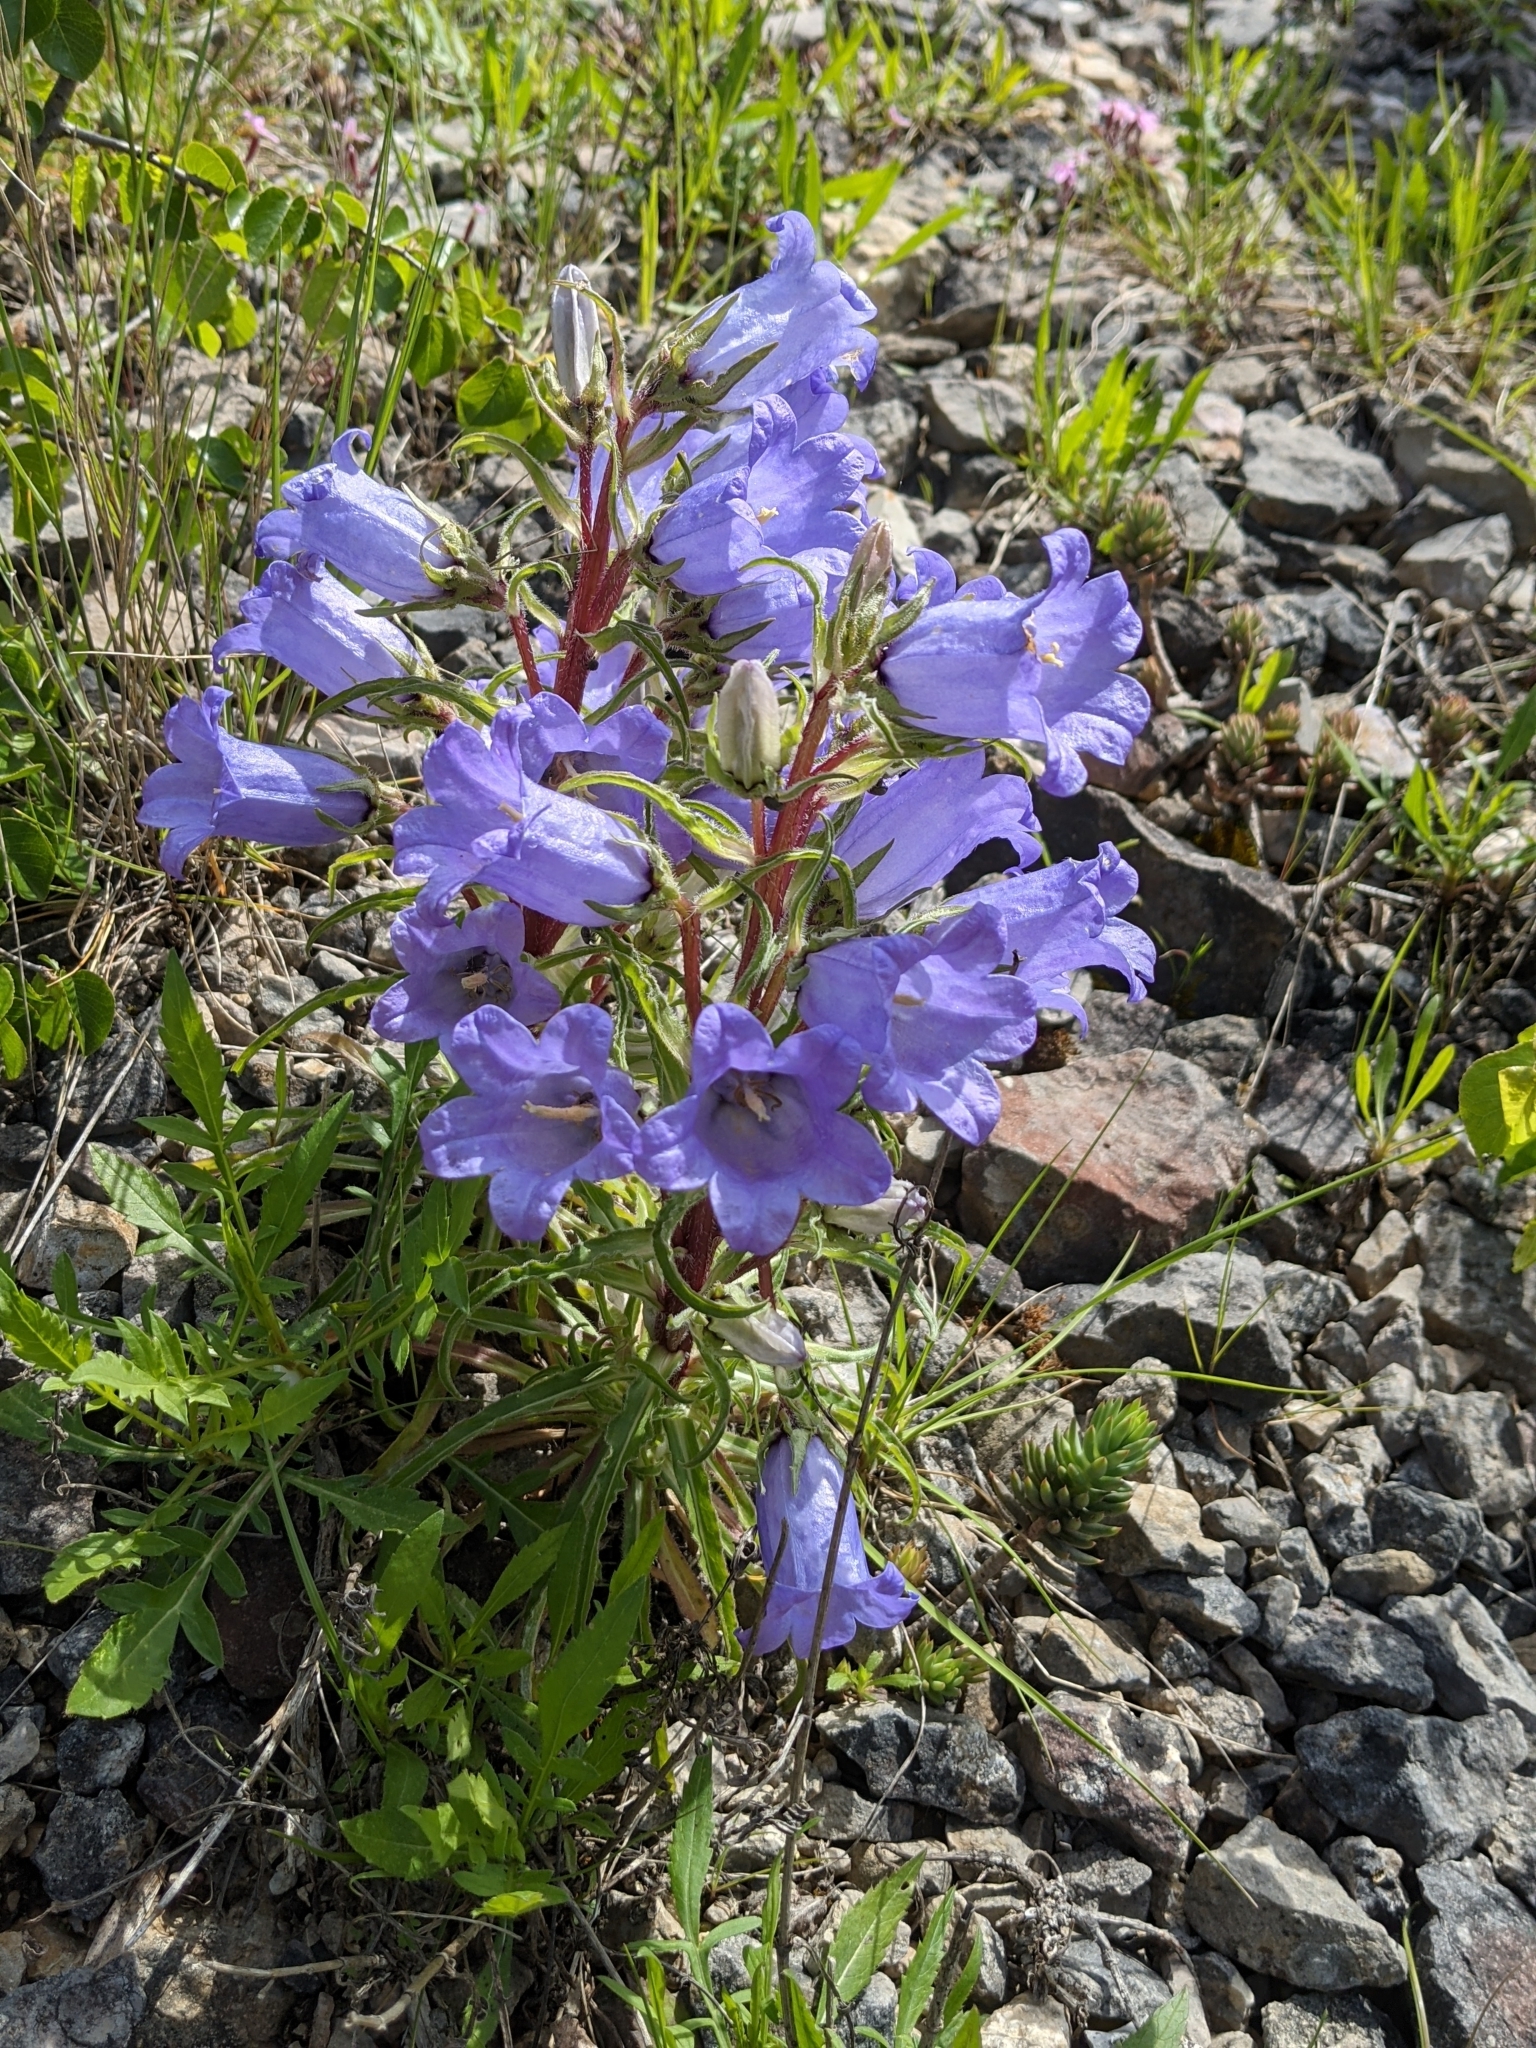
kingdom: Plantae
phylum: Tracheophyta
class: Magnoliopsida
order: Asterales
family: Campanulaceae
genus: Campanula
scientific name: Campanula speciosa
